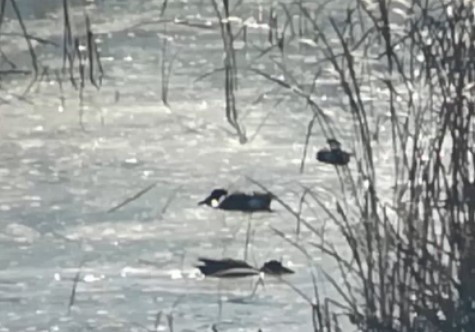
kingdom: Animalia
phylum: Chordata
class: Aves
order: Anseriformes
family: Anatidae
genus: Spatula
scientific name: Spatula clypeata
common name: Northern shoveler
